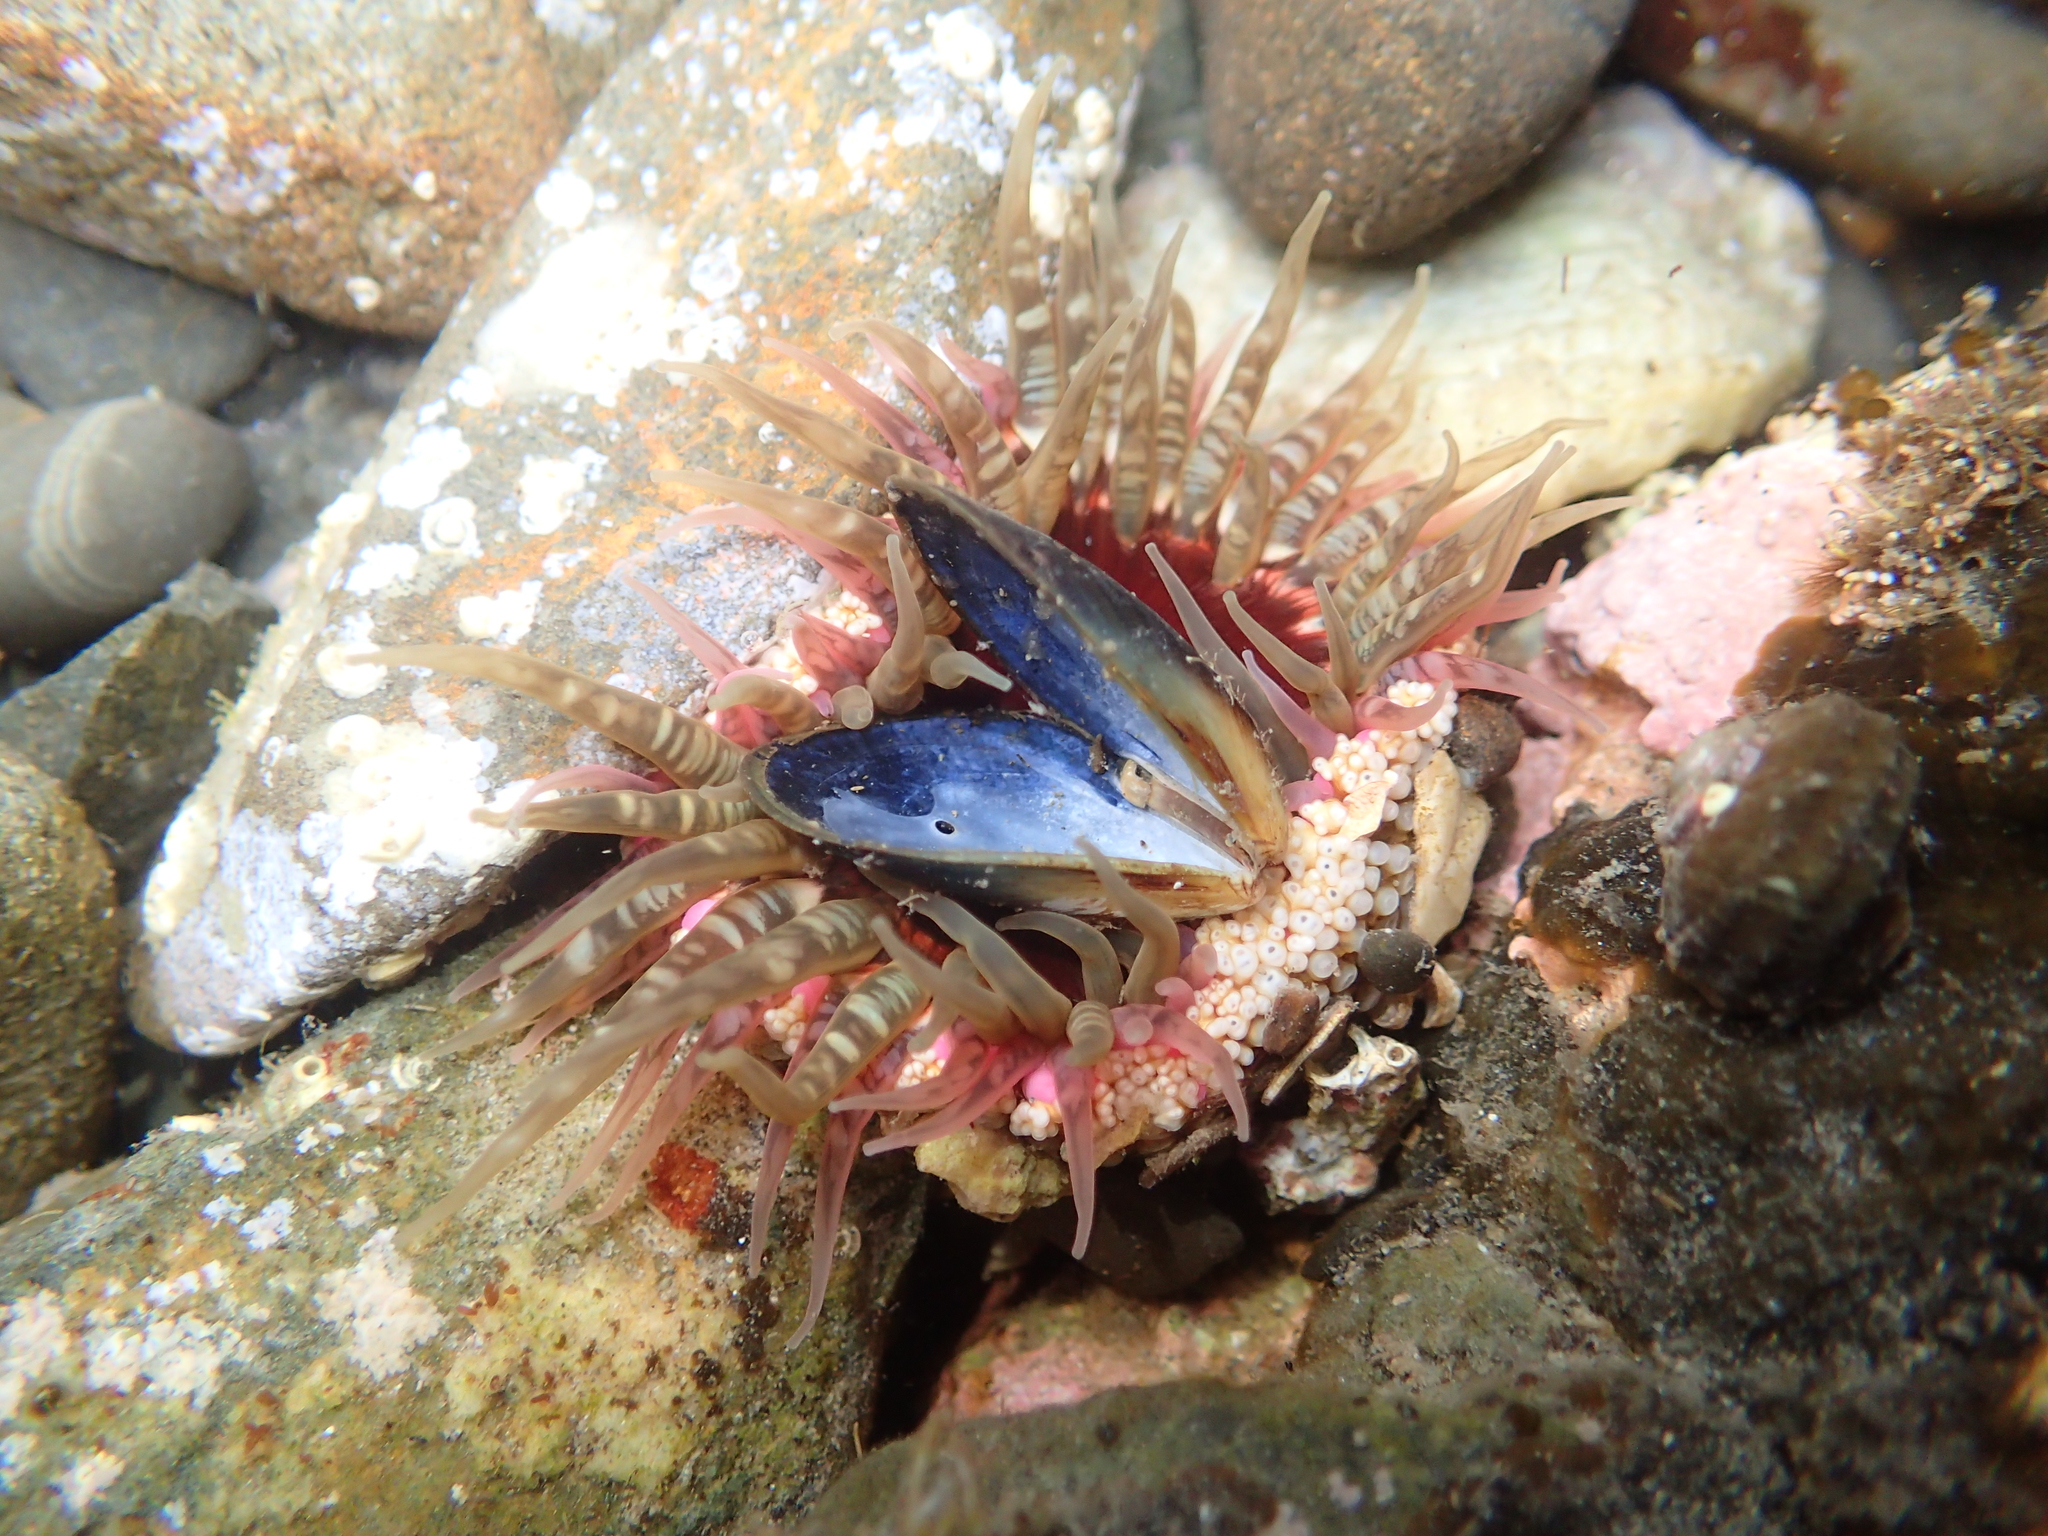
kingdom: Animalia
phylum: Cnidaria
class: Anthozoa
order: Actiniaria
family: Actiniidae
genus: Oulactis
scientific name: Oulactis muscosa
